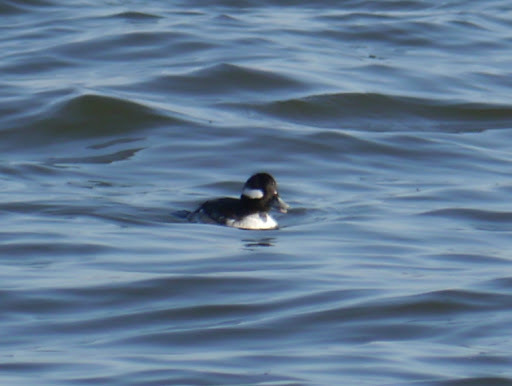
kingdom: Animalia
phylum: Chordata
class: Aves
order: Anseriformes
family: Anatidae
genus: Bucephala
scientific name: Bucephala albeola
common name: Bufflehead
